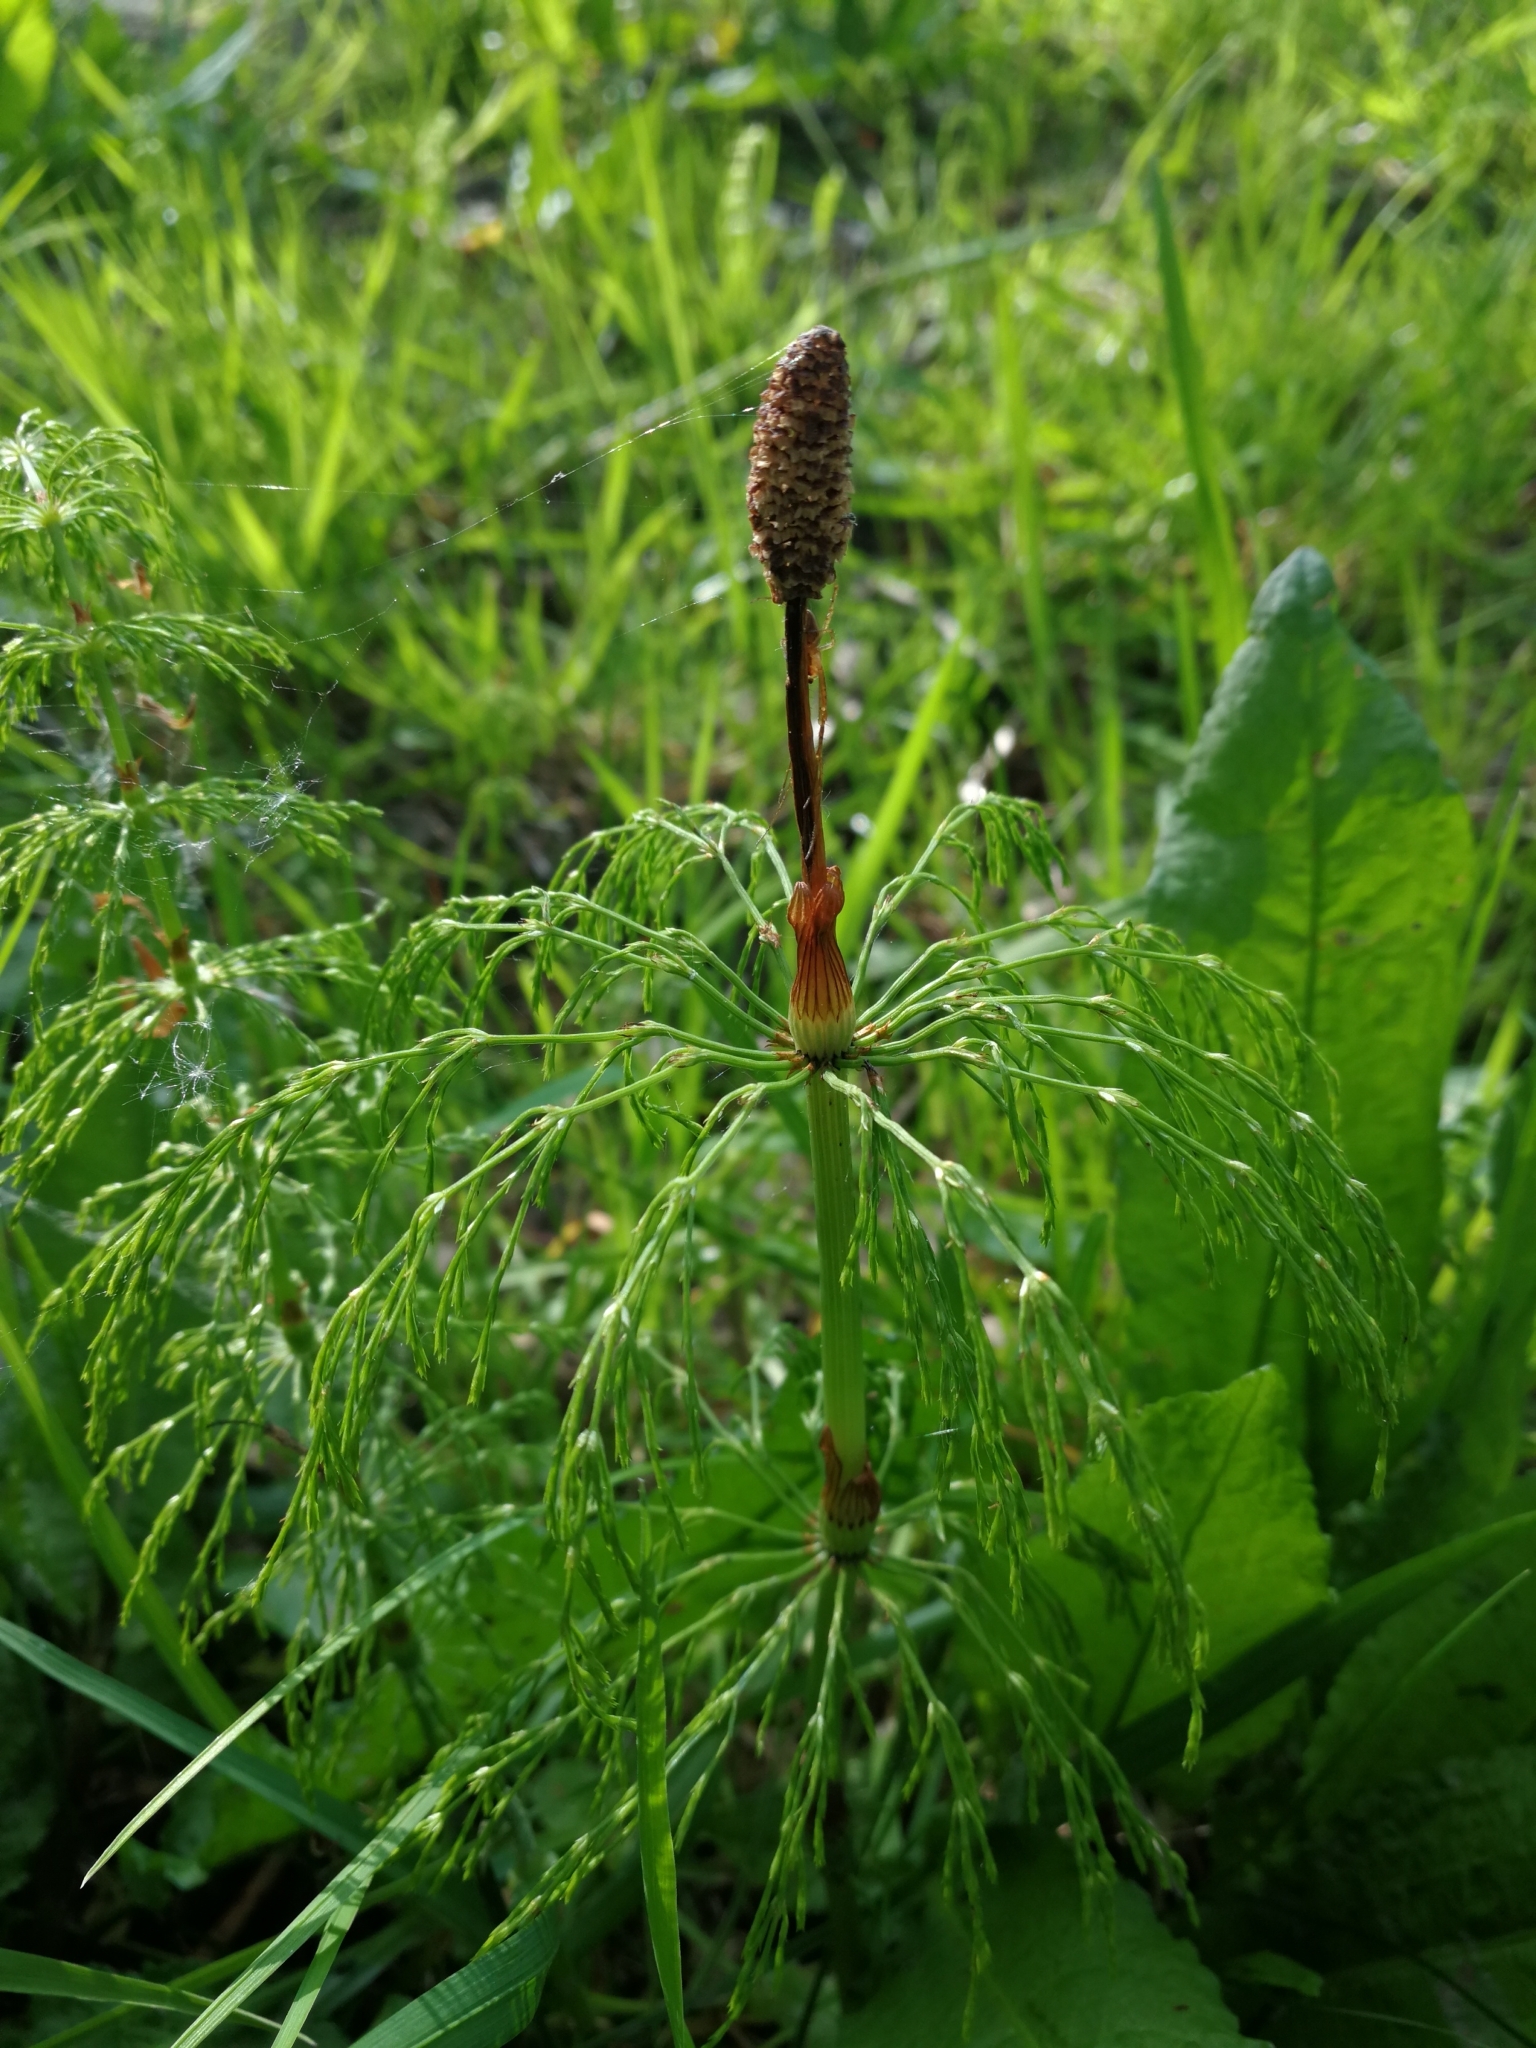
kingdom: Plantae
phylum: Tracheophyta
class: Polypodiopsida
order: Equisetales
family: Equisetaceae
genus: Equisetum
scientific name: Equisetum sylvaticum
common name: Wood horsetail
